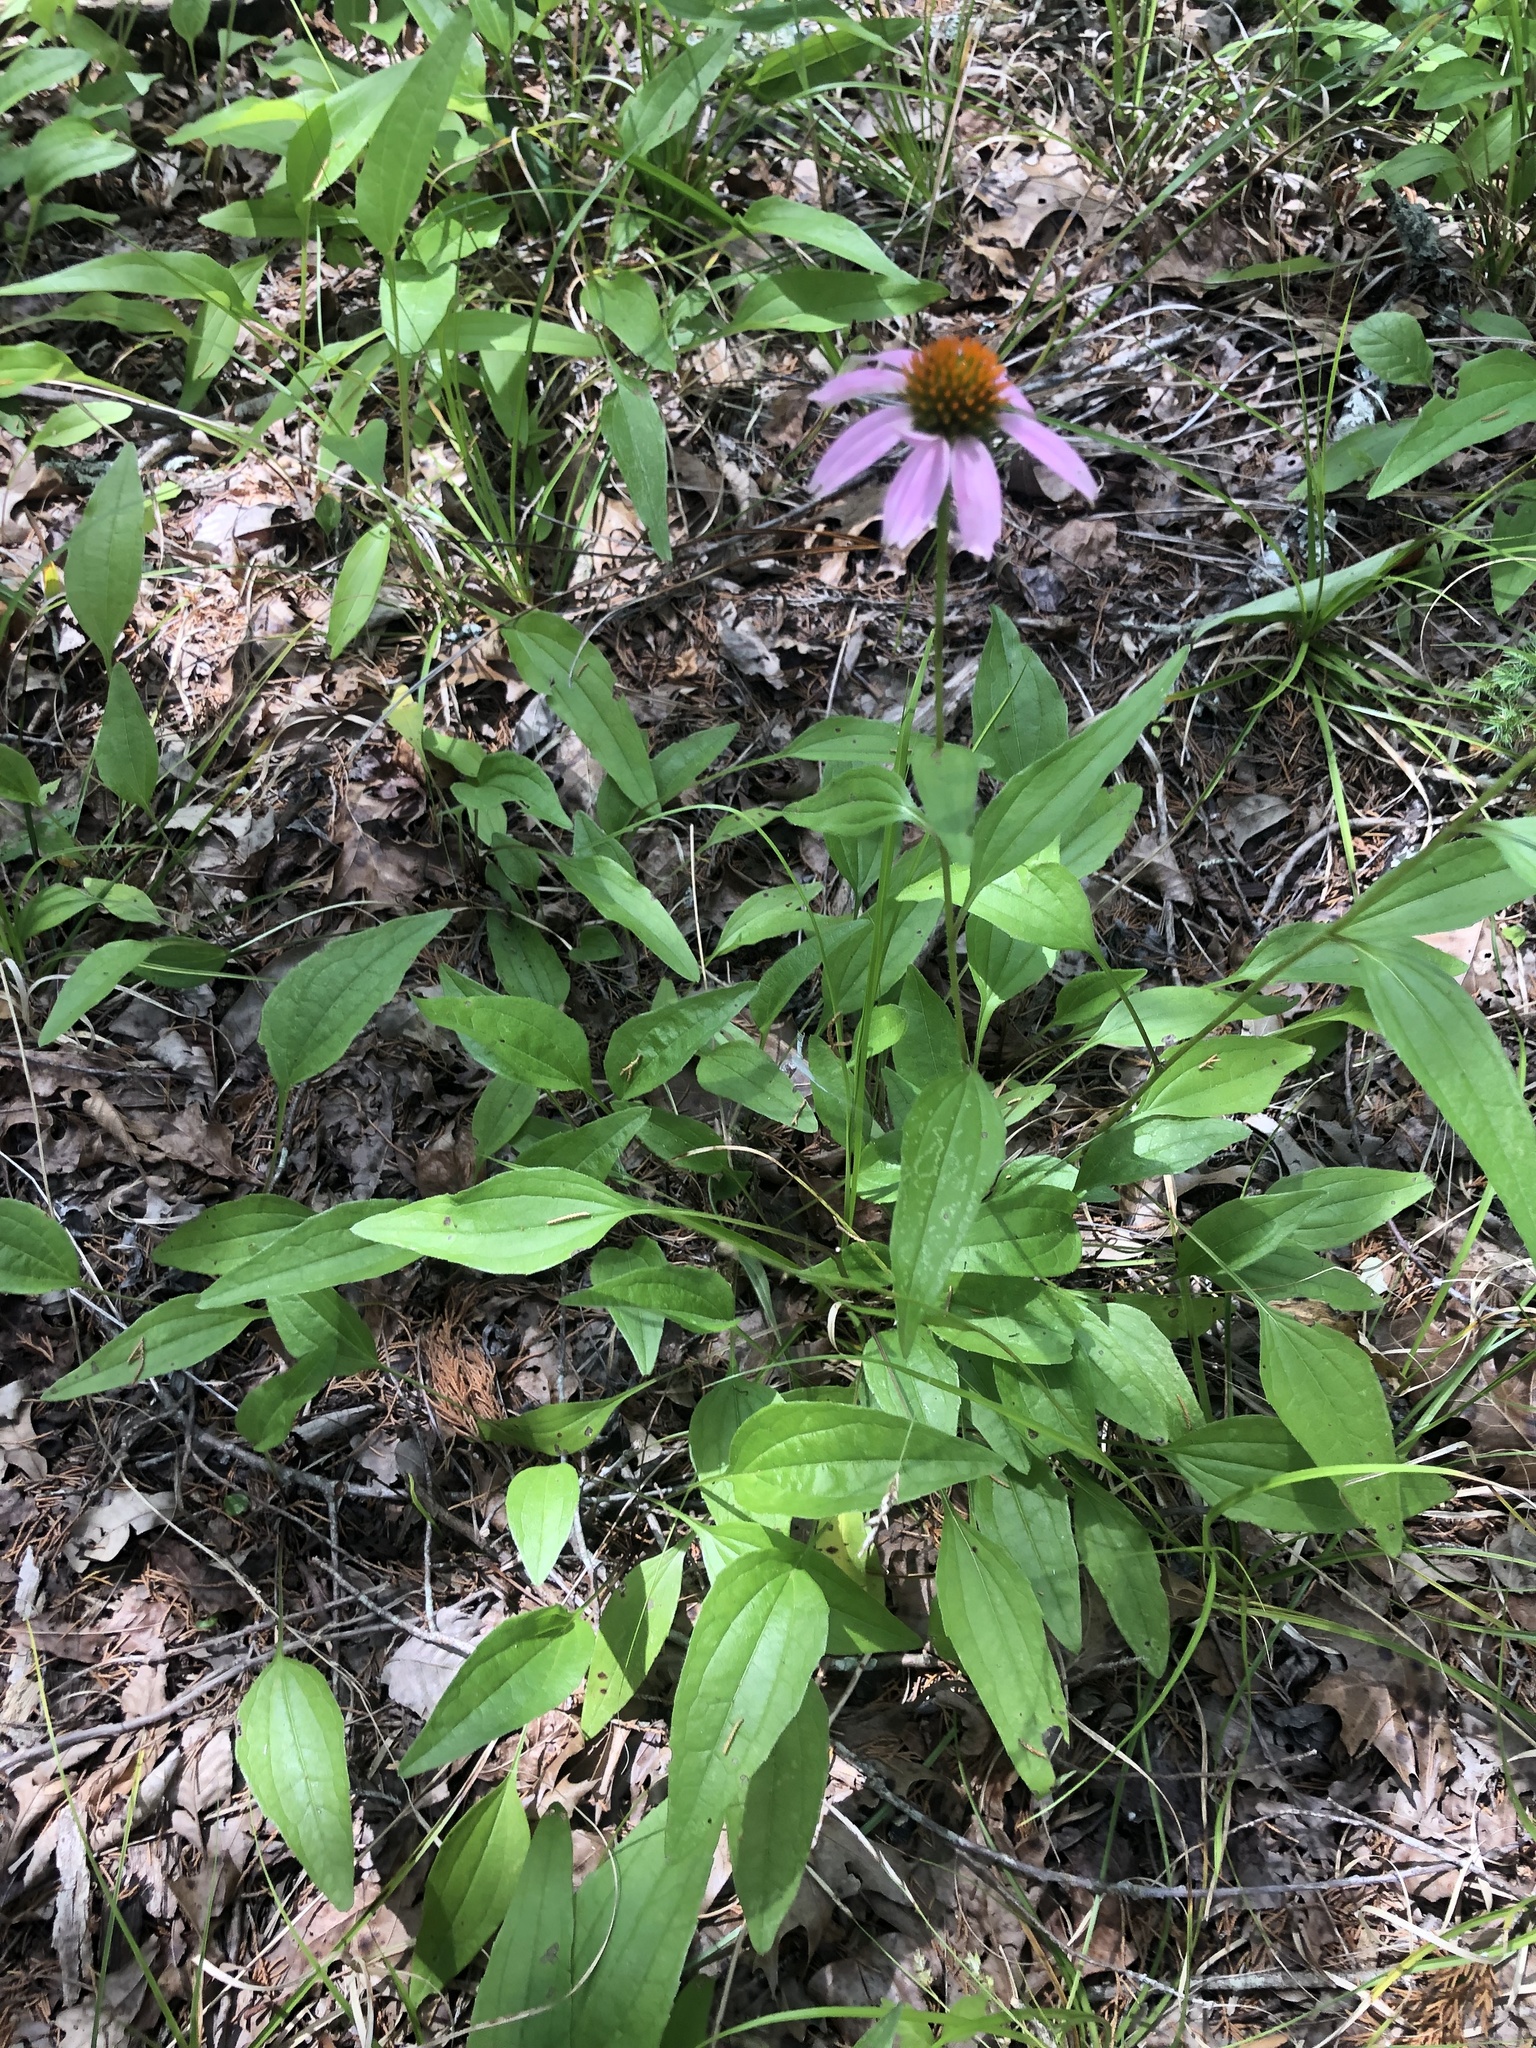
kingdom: Plantae
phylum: Tracheophyta
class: Magnoliopsida
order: Asterales
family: Asteraceae
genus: Echinacea
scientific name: Echinacea purpurea
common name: Broad-leaved purple coneflower
